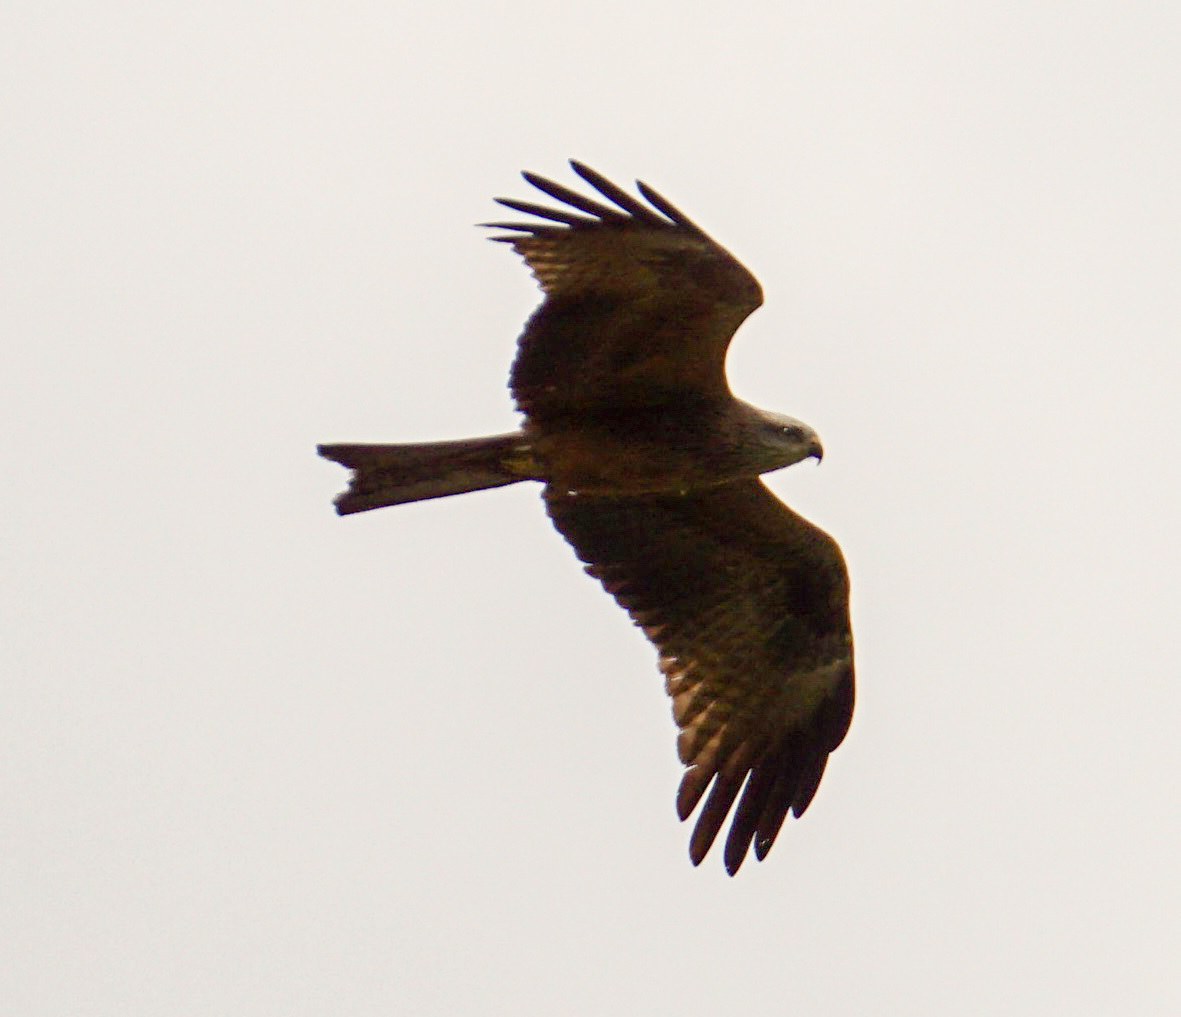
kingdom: Animalia
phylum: Chordata
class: Aves
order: Accipitriformes
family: Accipitridae
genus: Milvus
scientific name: Milvus migrans
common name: Black kite
